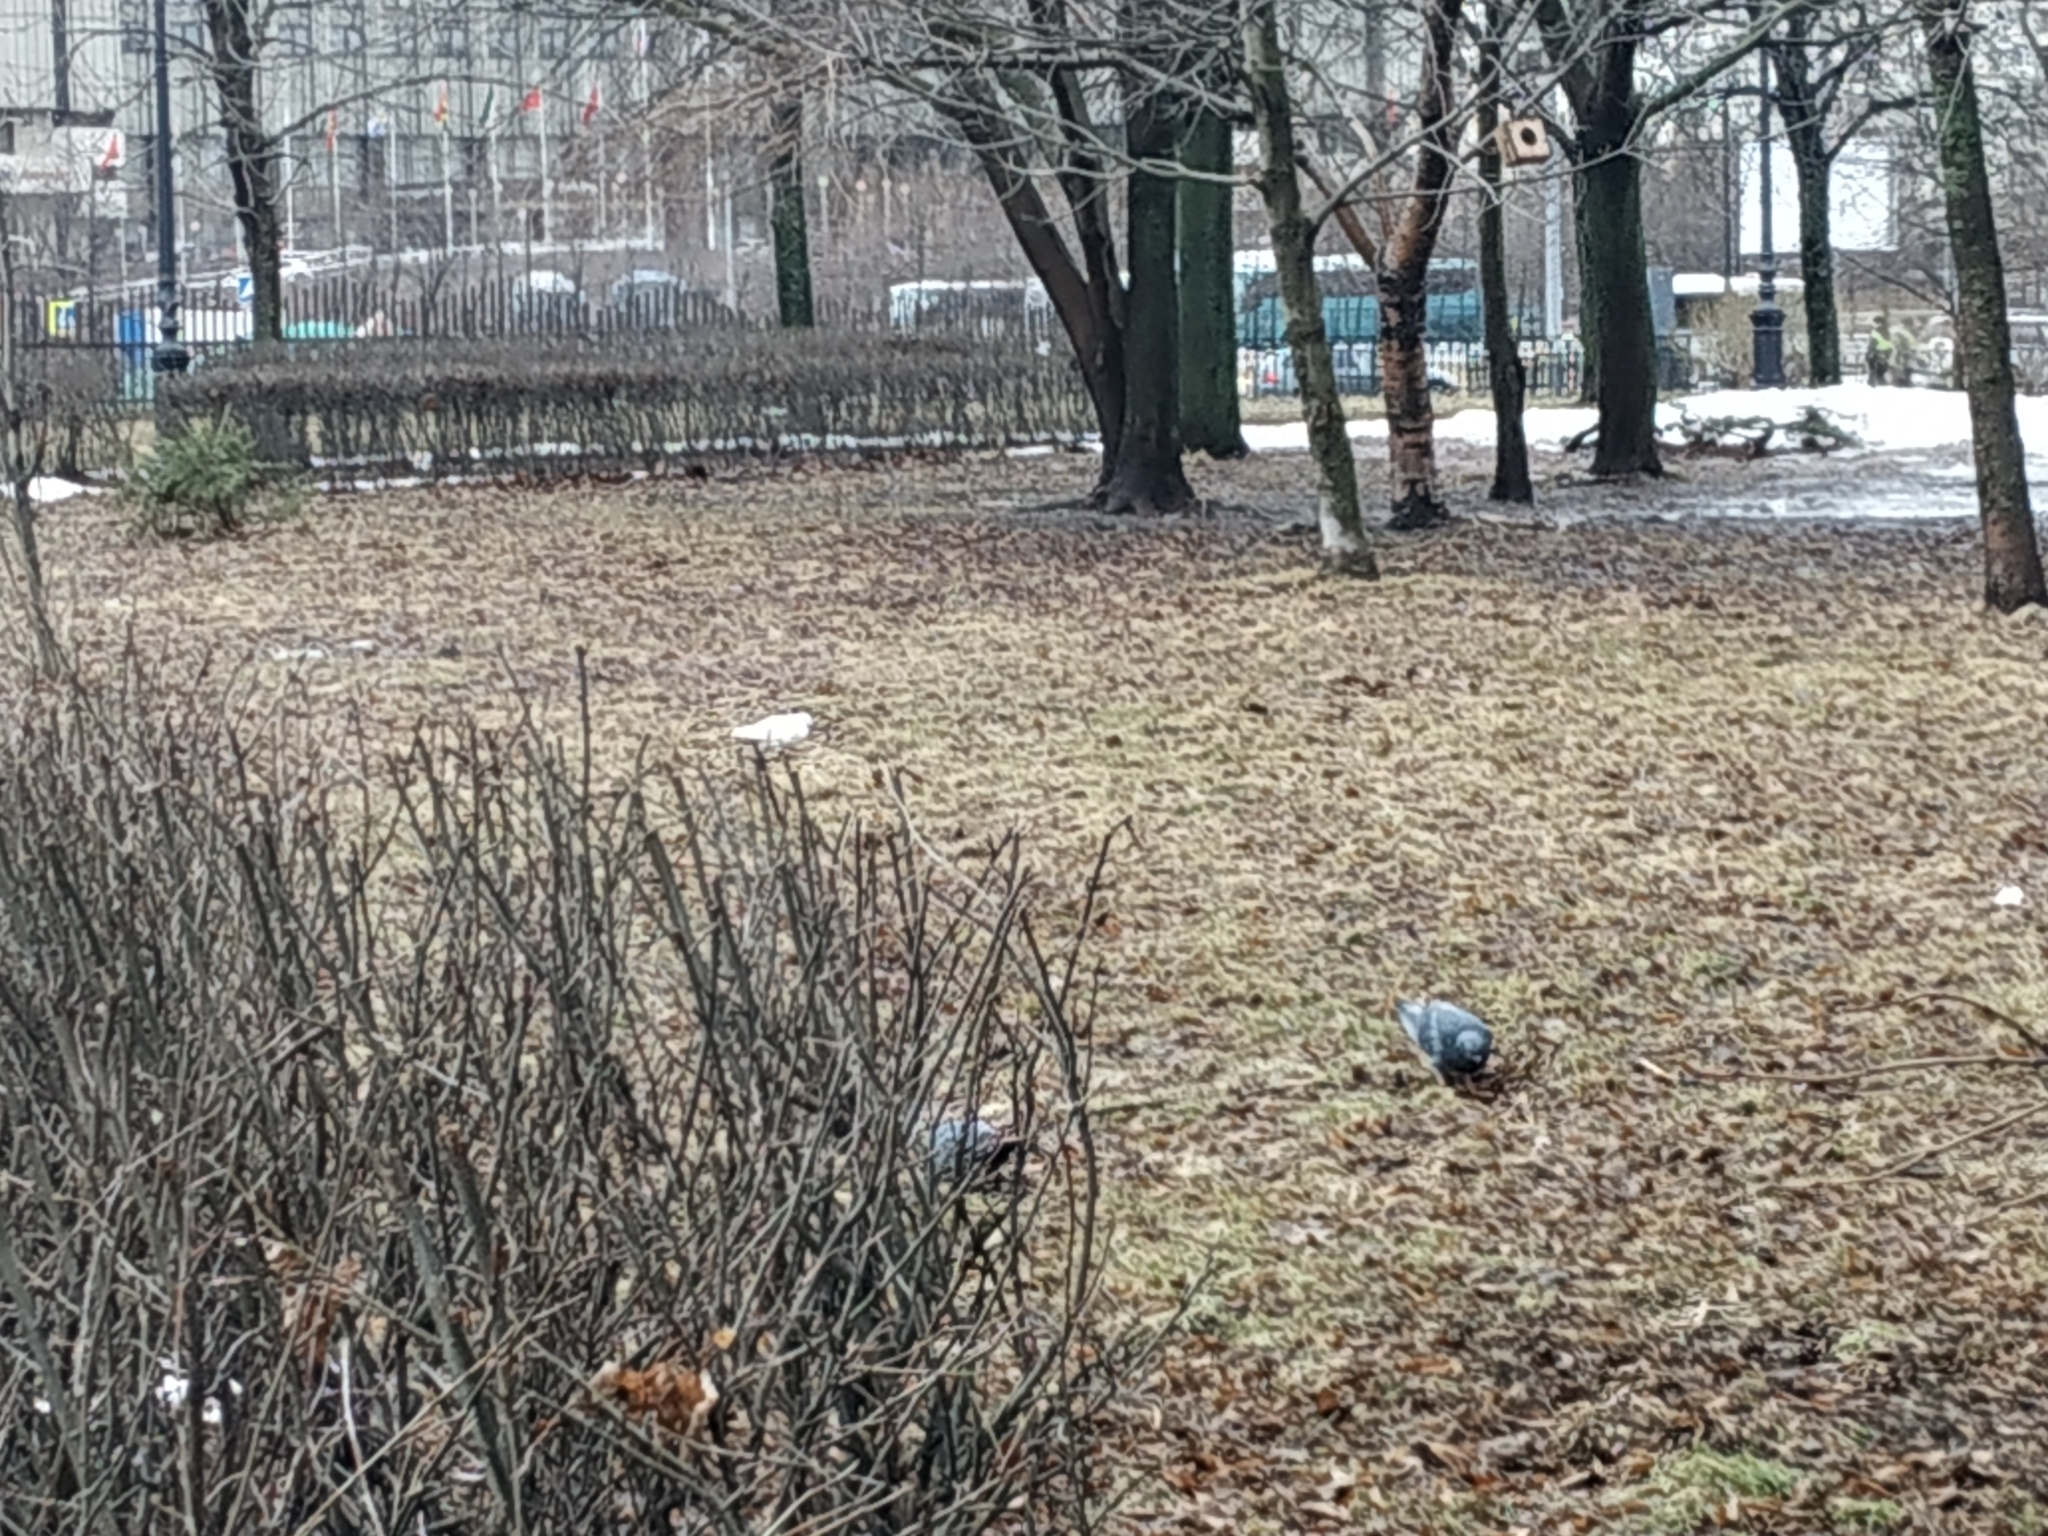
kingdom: Animalia
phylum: Chordata
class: Aves
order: Columbiformes
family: Columbidae
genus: Columba
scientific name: Columba livia
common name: Rock pigeon
